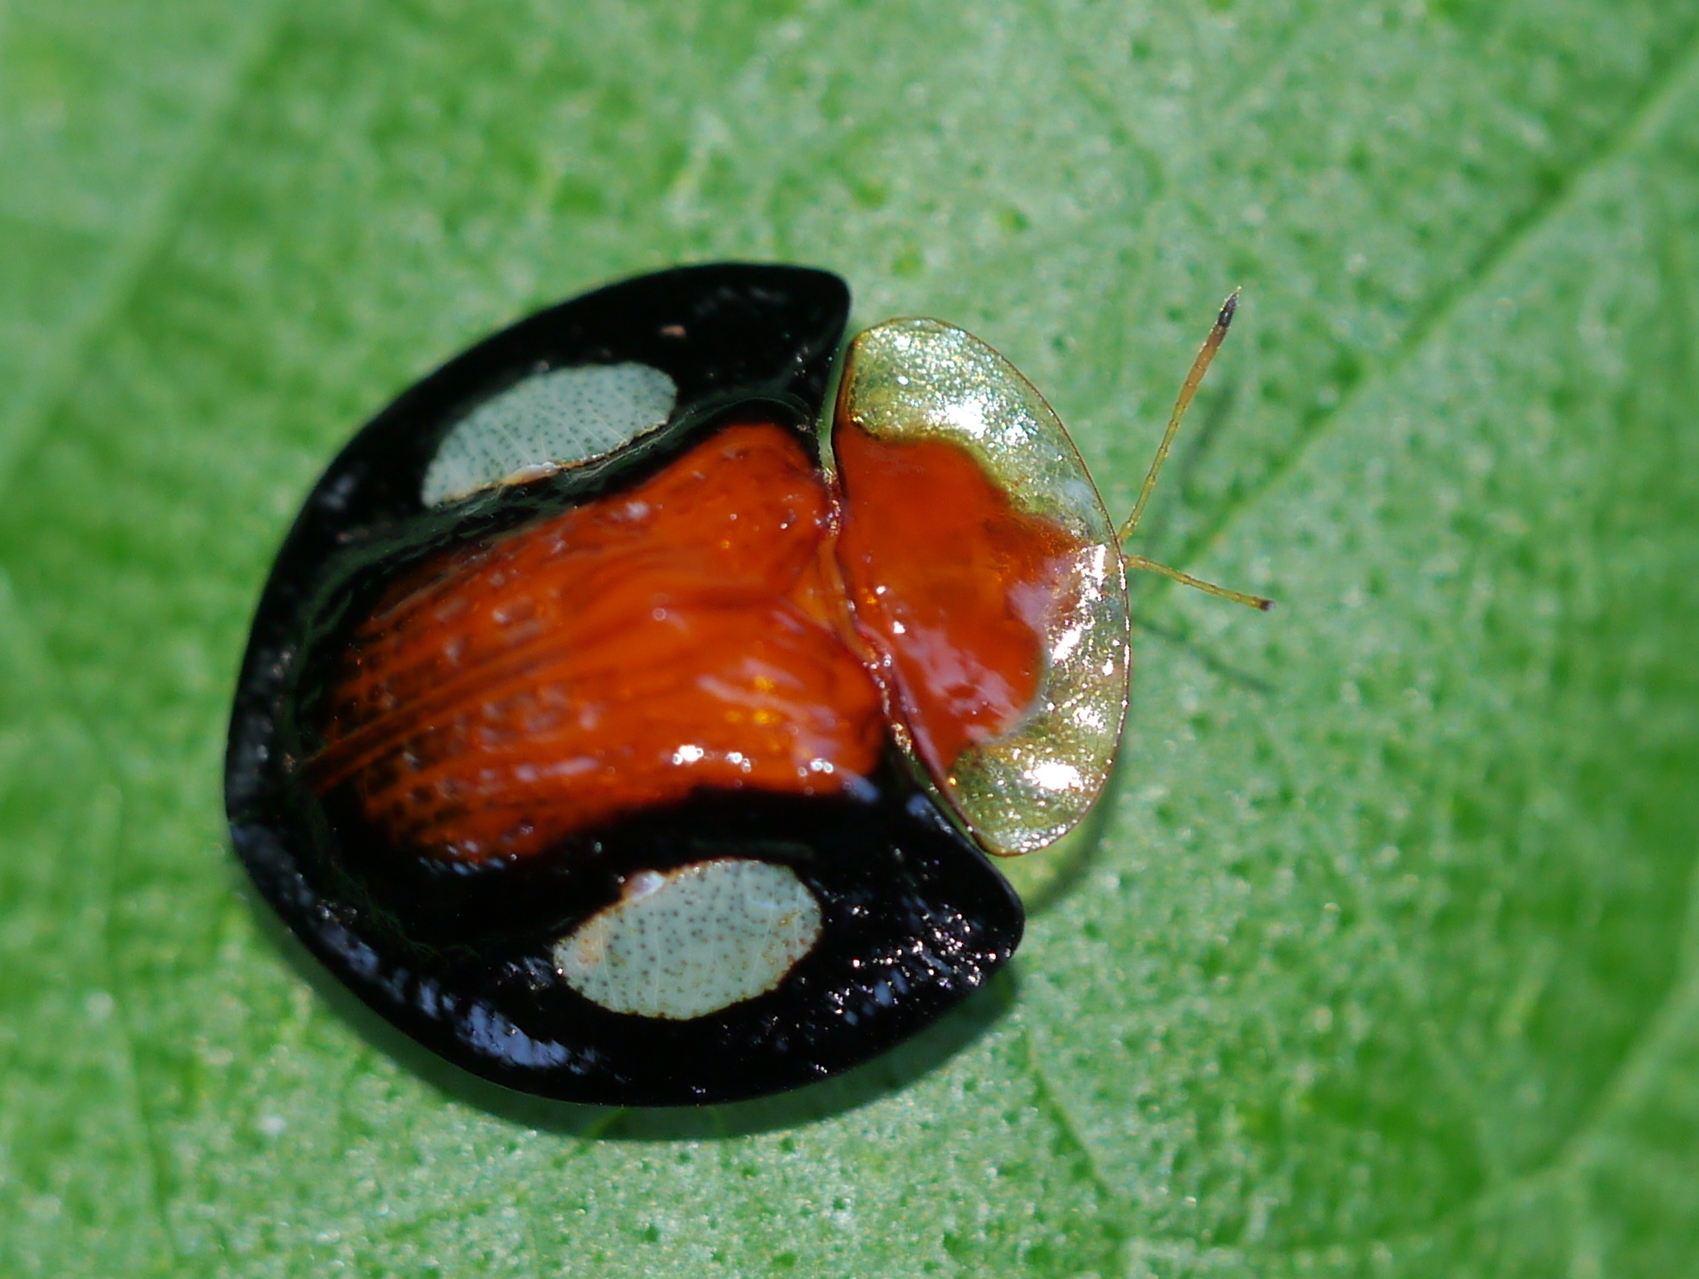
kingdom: Animalia
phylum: Arthropoda
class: Insecta
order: Coleoptera
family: Chrysomelidae
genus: Aspidimorpha
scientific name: Aspidimorpha togata
